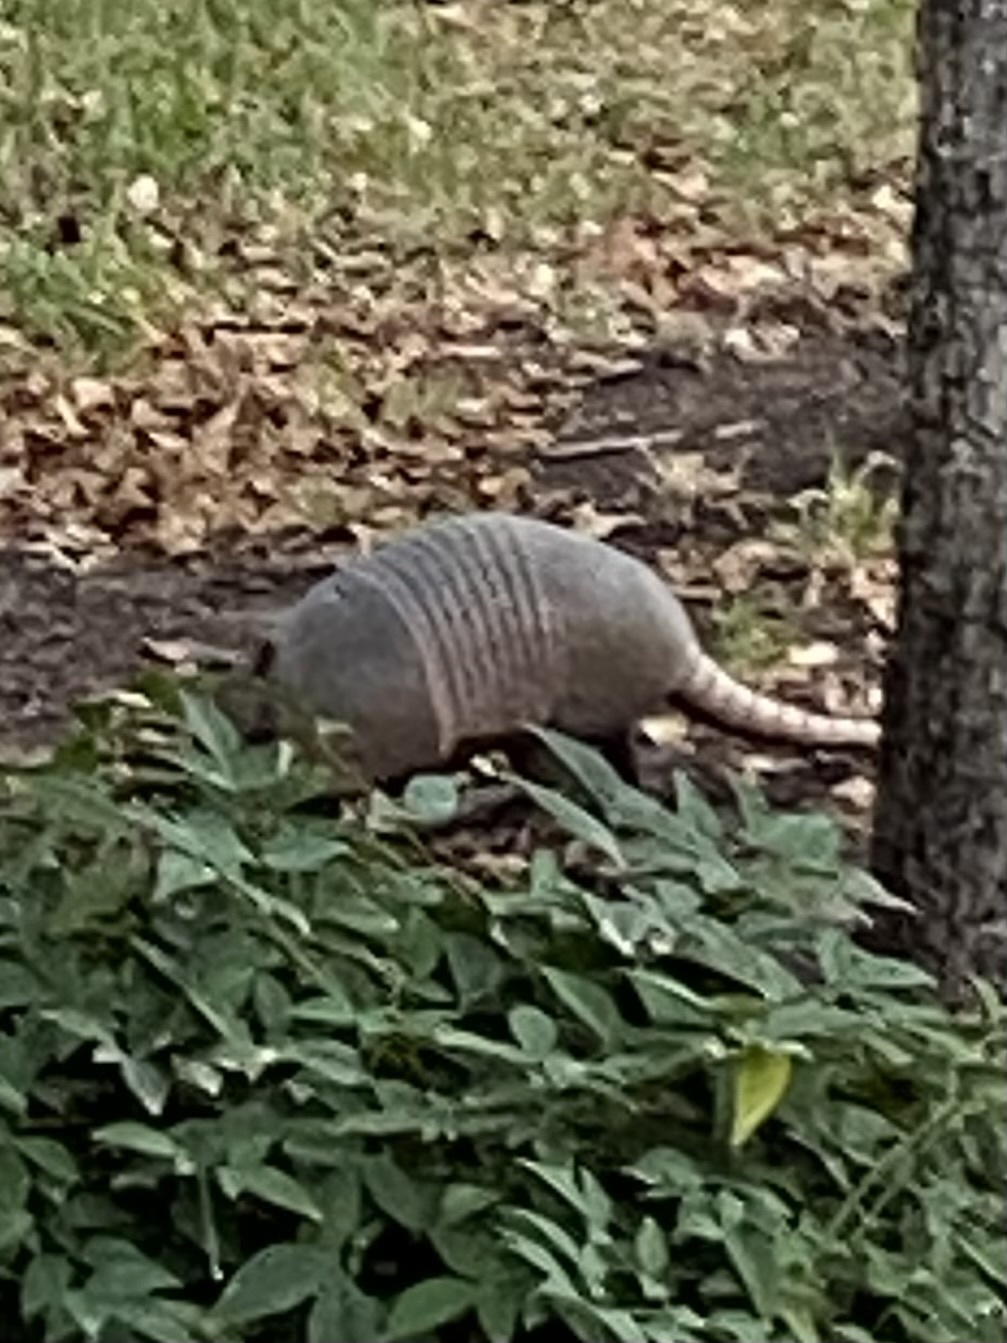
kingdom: Animalia
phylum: Chordata
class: Mammalia
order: Cingulata
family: Dasypodidae
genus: Dasypus
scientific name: Dasypus novemcinctus
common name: Nine-banded armadillo
